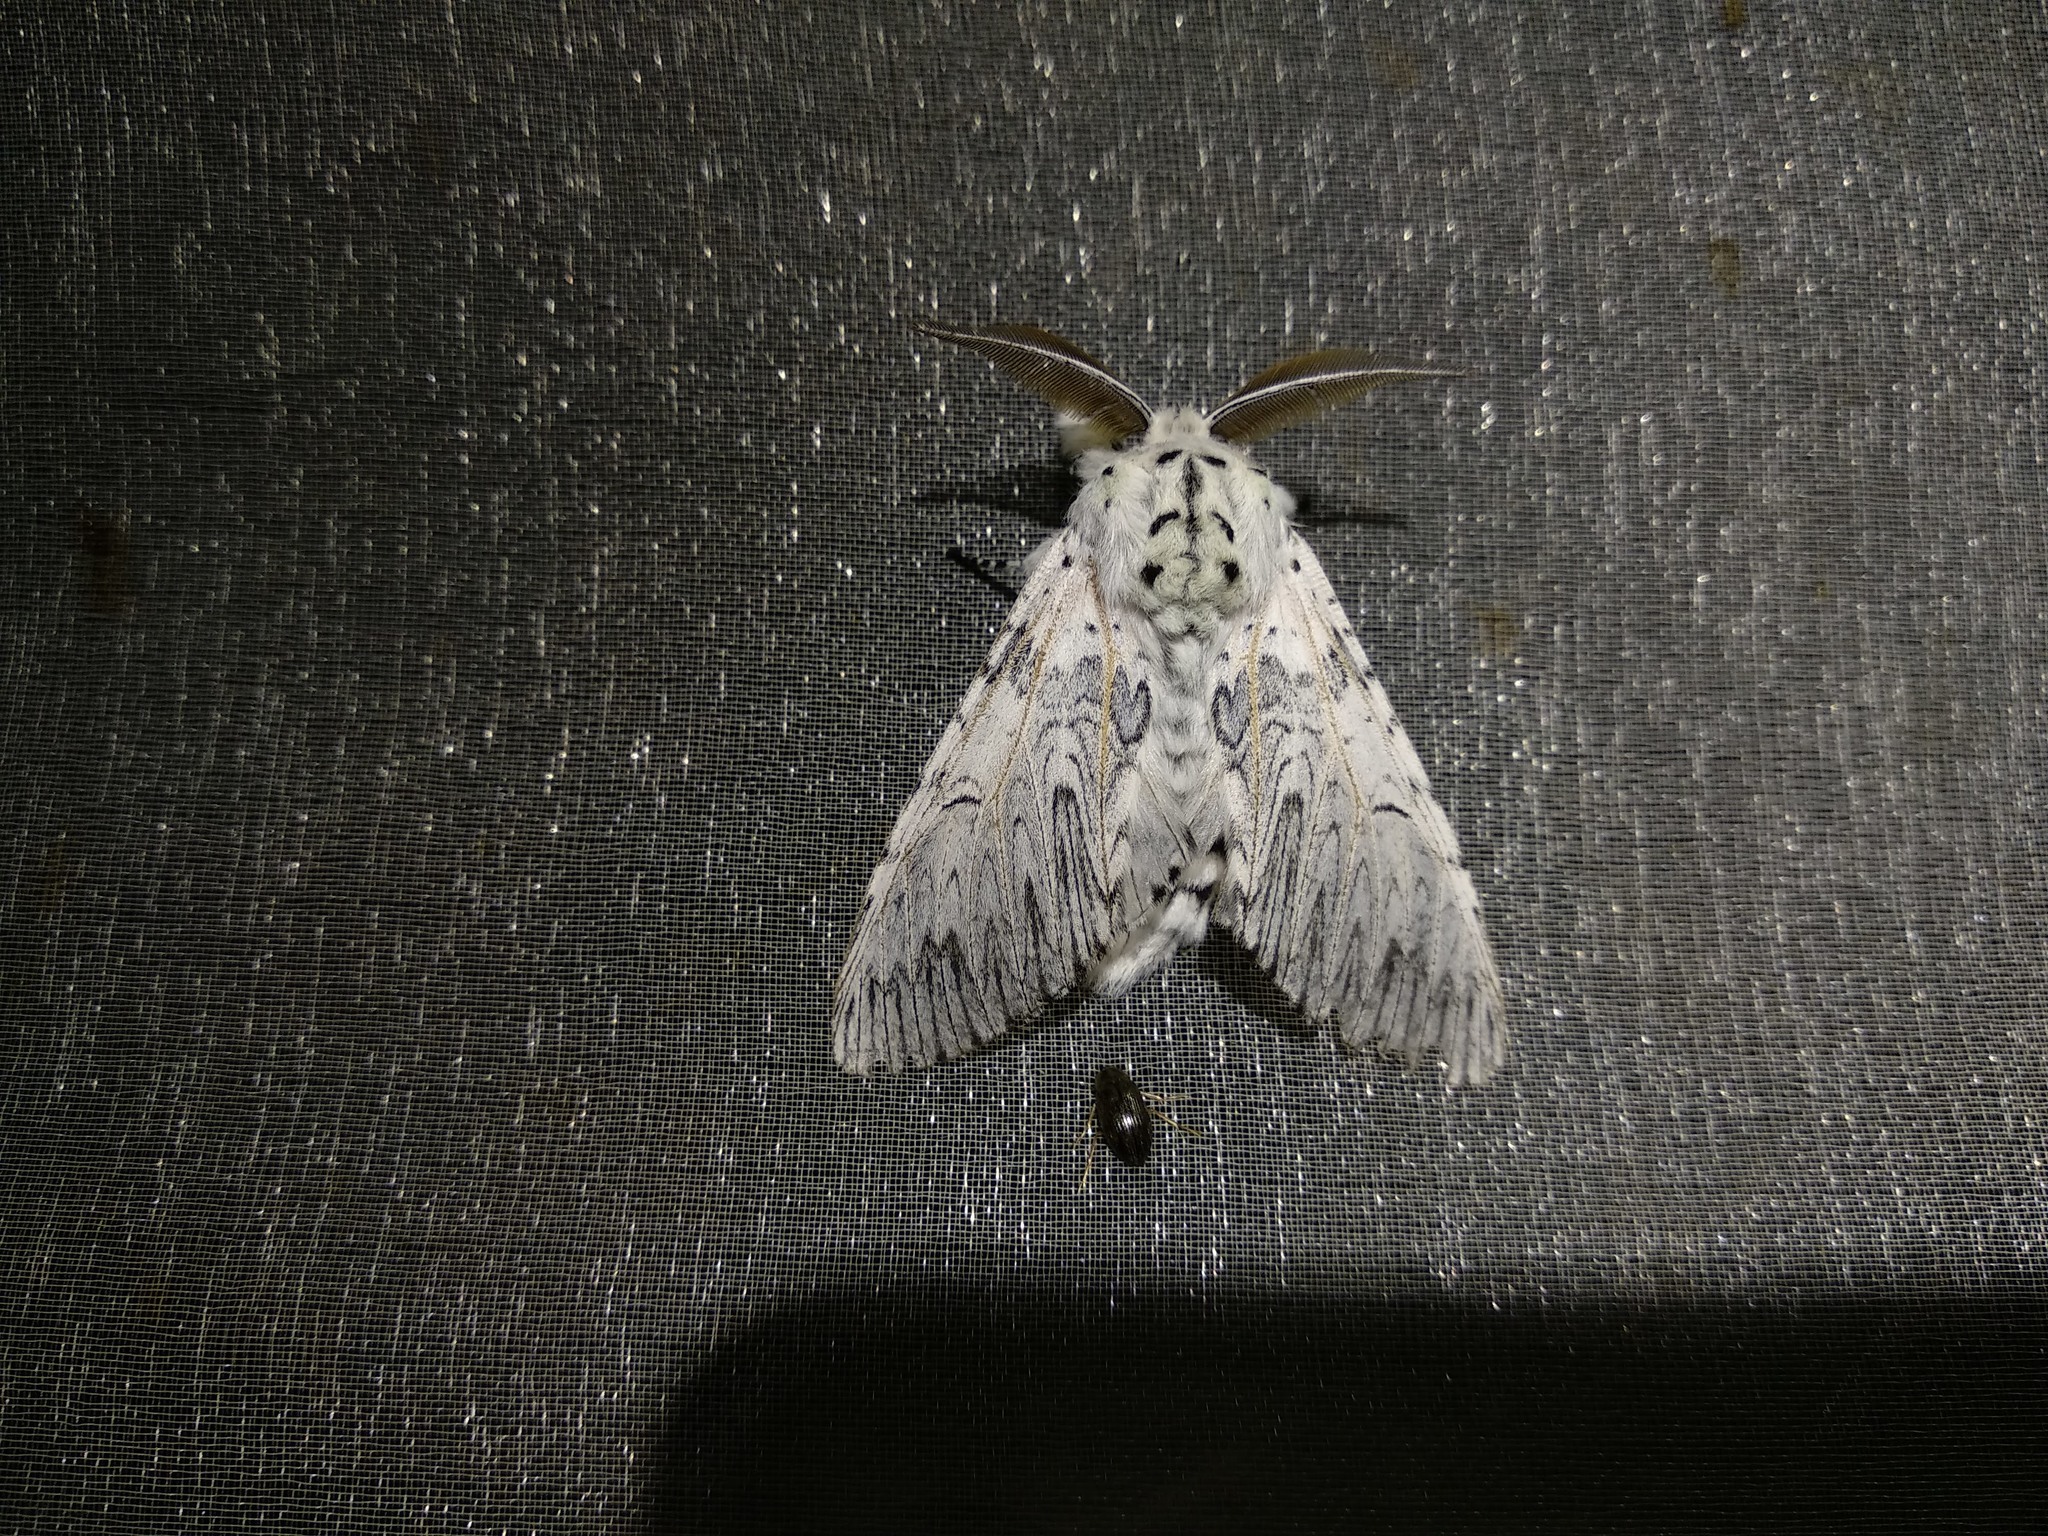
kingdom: Animalia
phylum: Arthropoda
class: Insecta
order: Lepidoptera
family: Notodontidae
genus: Cerura
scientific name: Cerura vinula
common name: Puss moth
